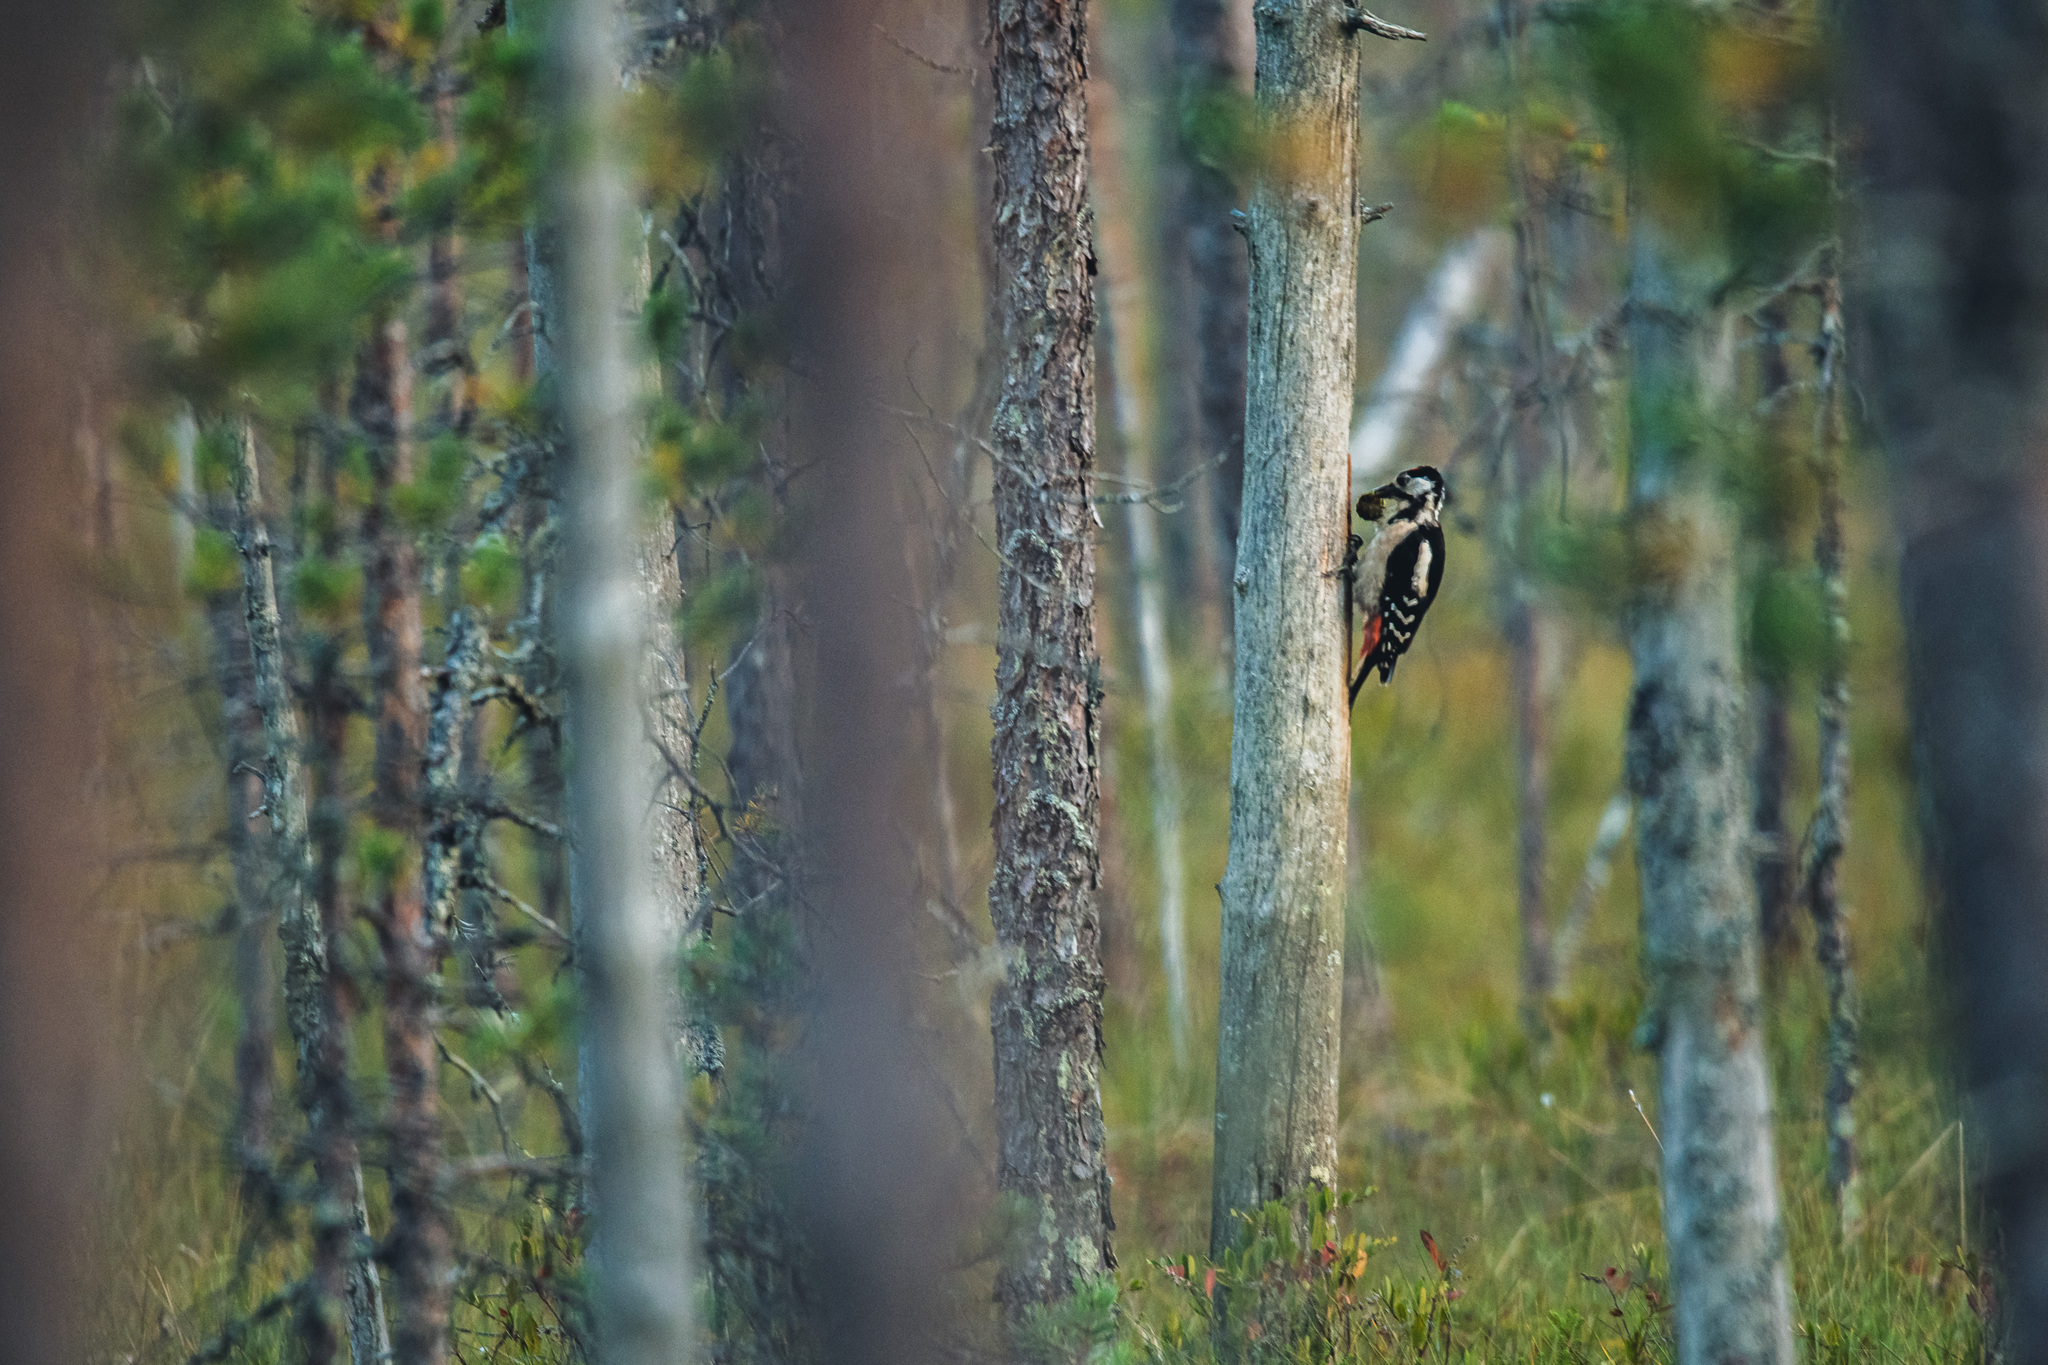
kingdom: Animalia
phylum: Chordata
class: Aves
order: Piciformes
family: Picidae
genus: Dendrocopos
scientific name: Dendrocopos major
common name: Great spotted woodpecker
